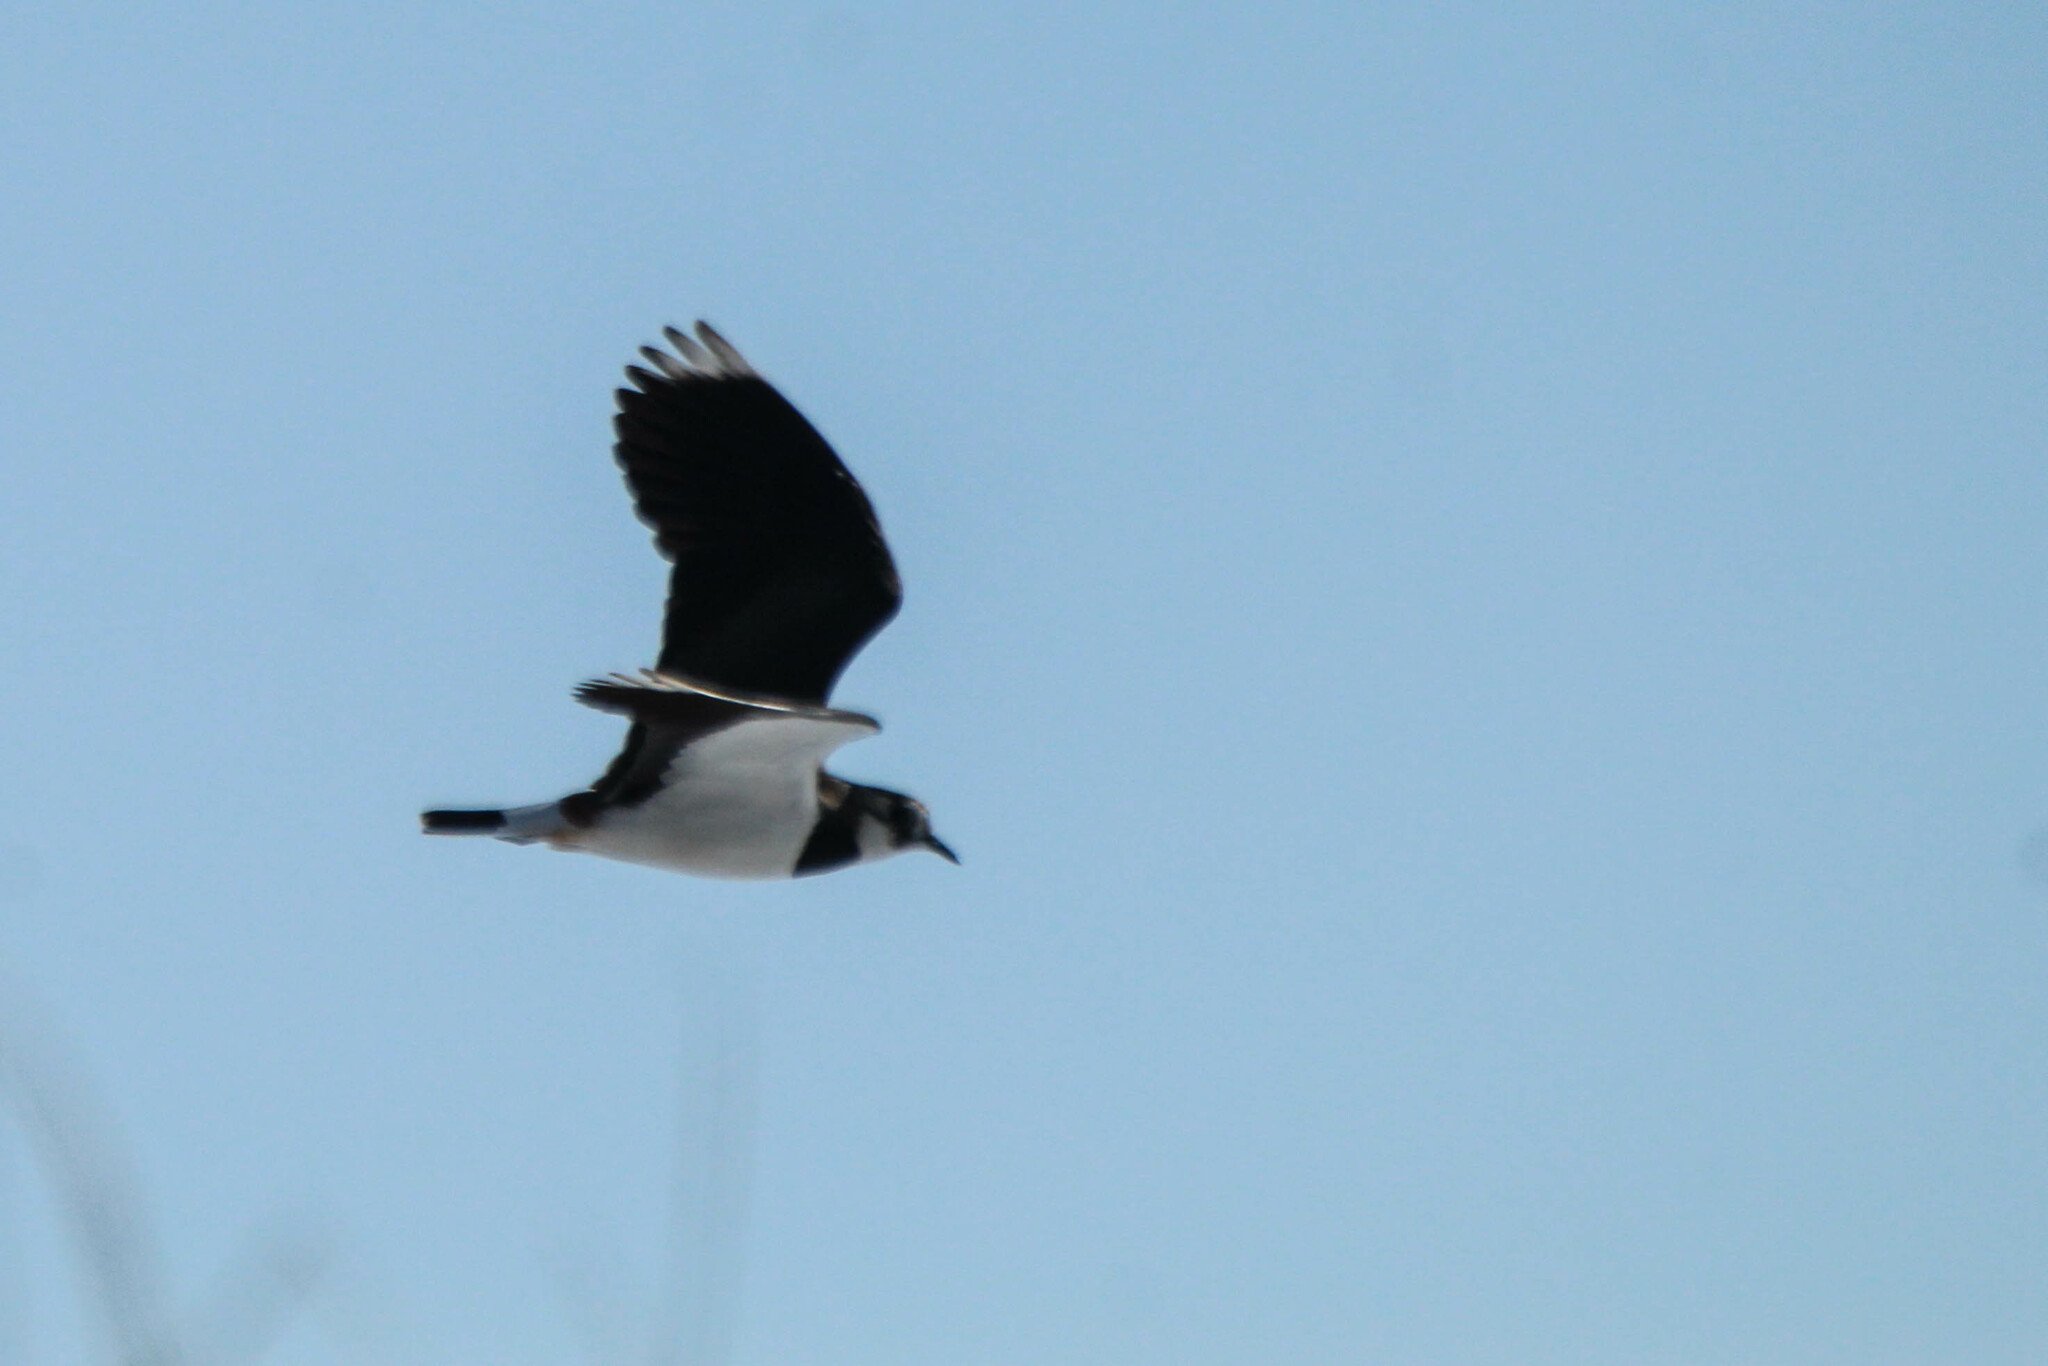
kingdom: Animalia
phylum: Chordata
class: Aves
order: Charadriiformes
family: Charadriidae
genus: Vanellus
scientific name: Vanellus vanellus
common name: Northern lapwing
